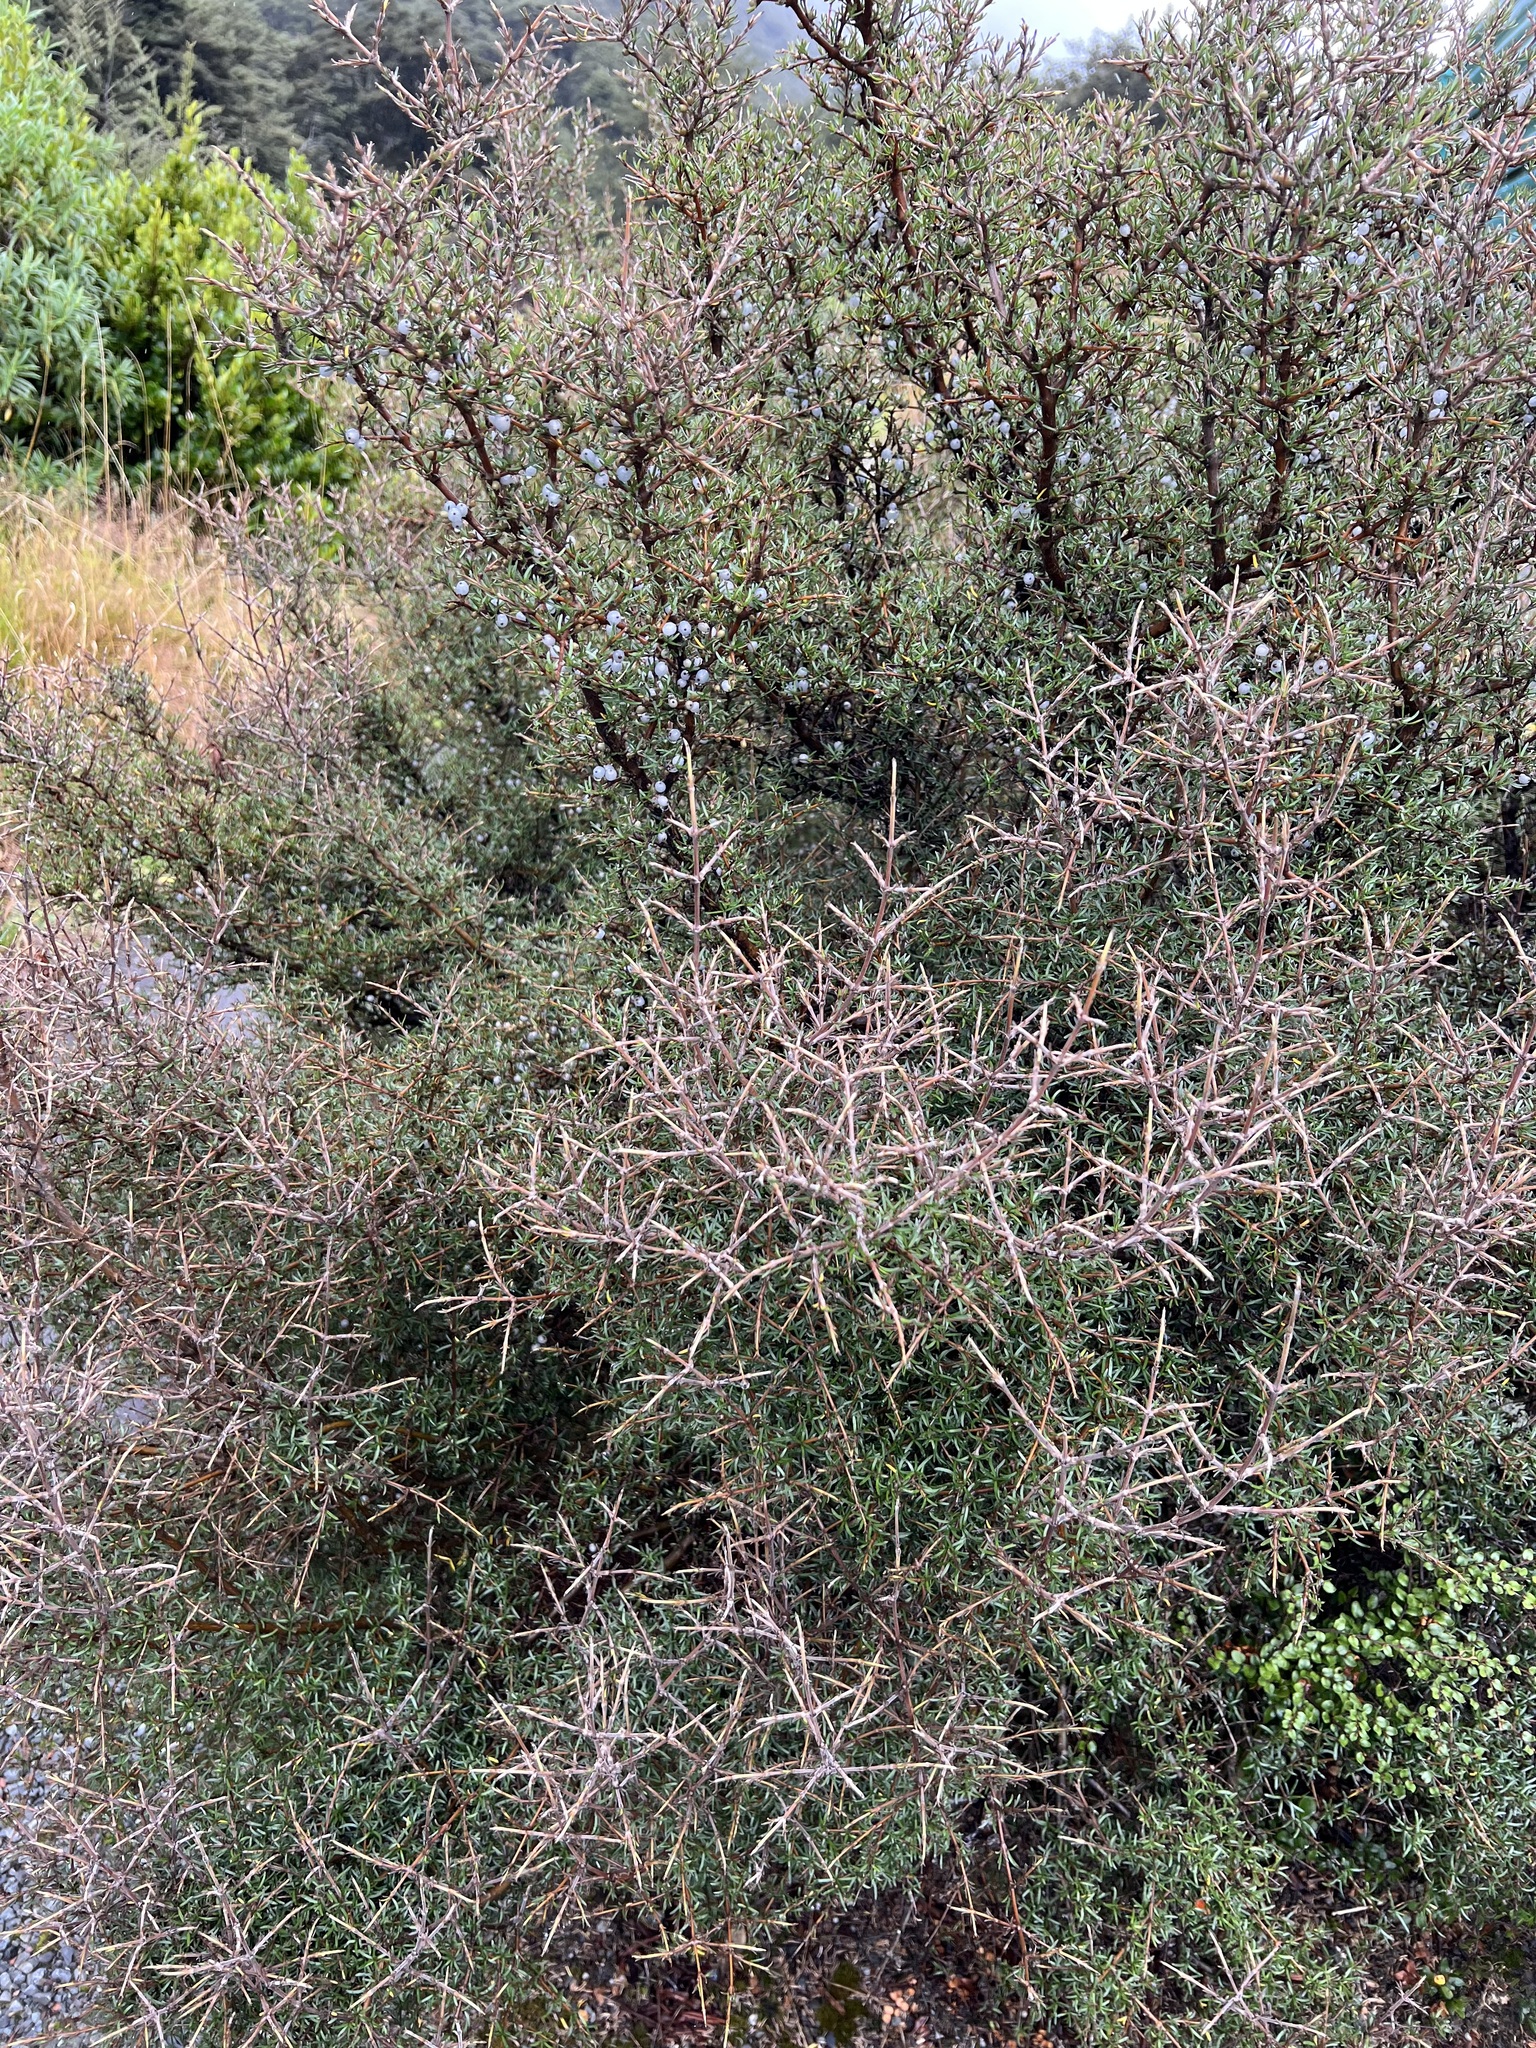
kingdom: Plantae
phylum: Tracheophyta
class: Magnoliopsida
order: Gentianales
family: Rubiaceae
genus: Coprosma
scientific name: Coprosma rugosa
